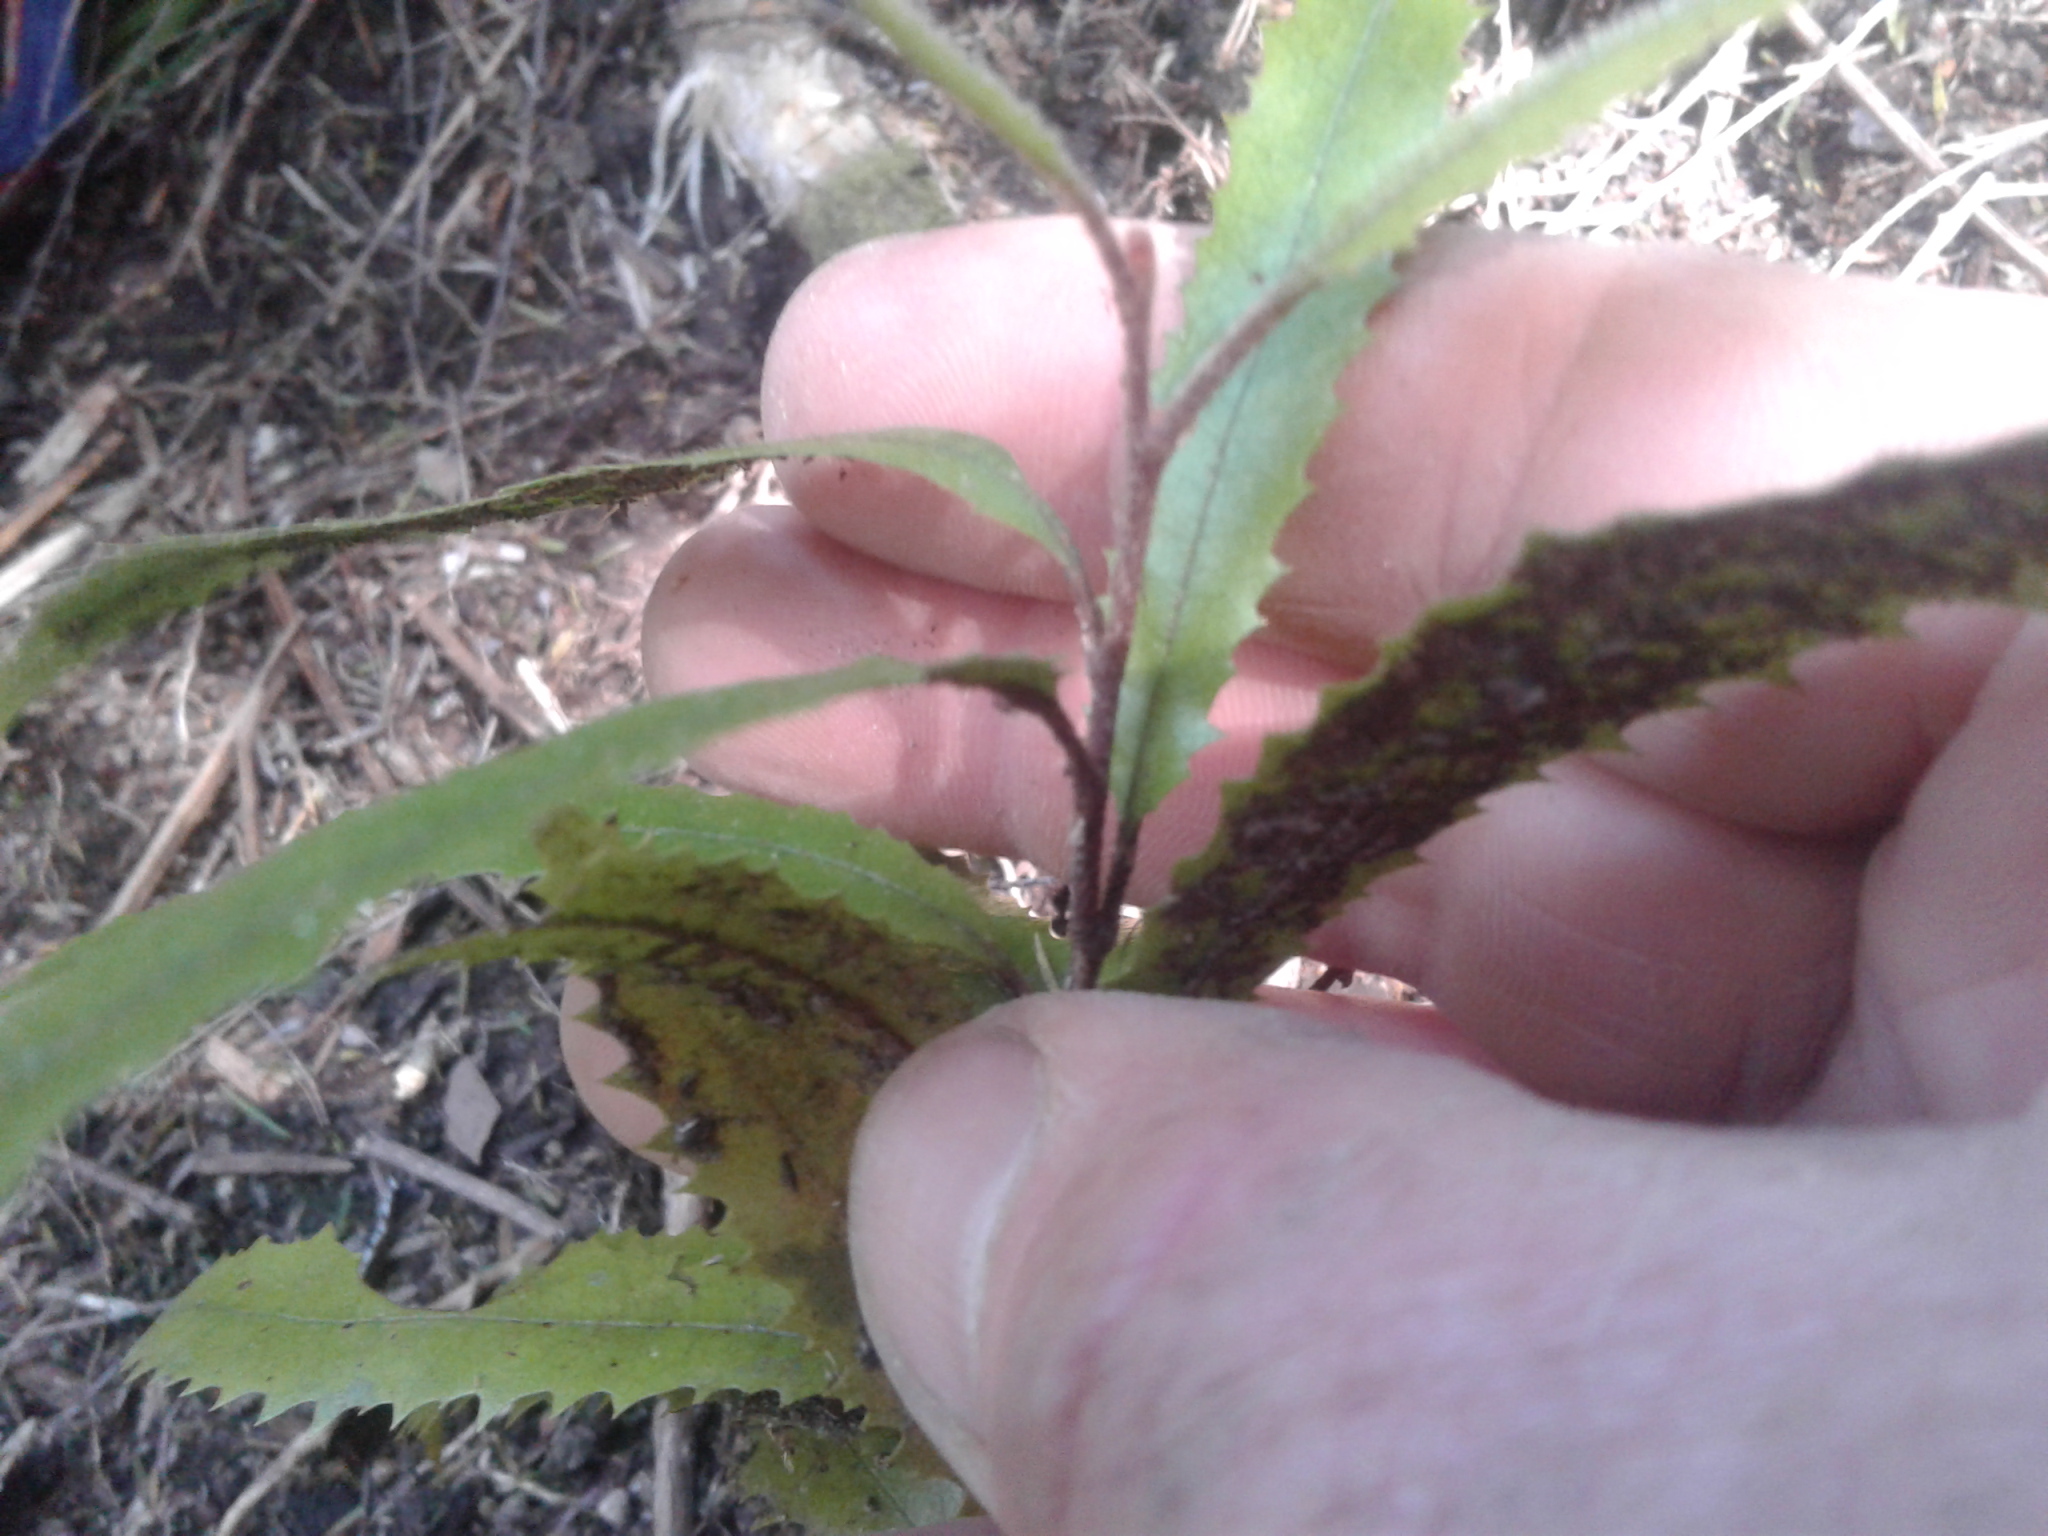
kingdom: Plantae
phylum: Tracheophyta
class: Magnoliopsida
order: Proteales
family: Proteaceae
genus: Knightia
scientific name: Knightia excelsa
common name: New zealand-honeysuckle
